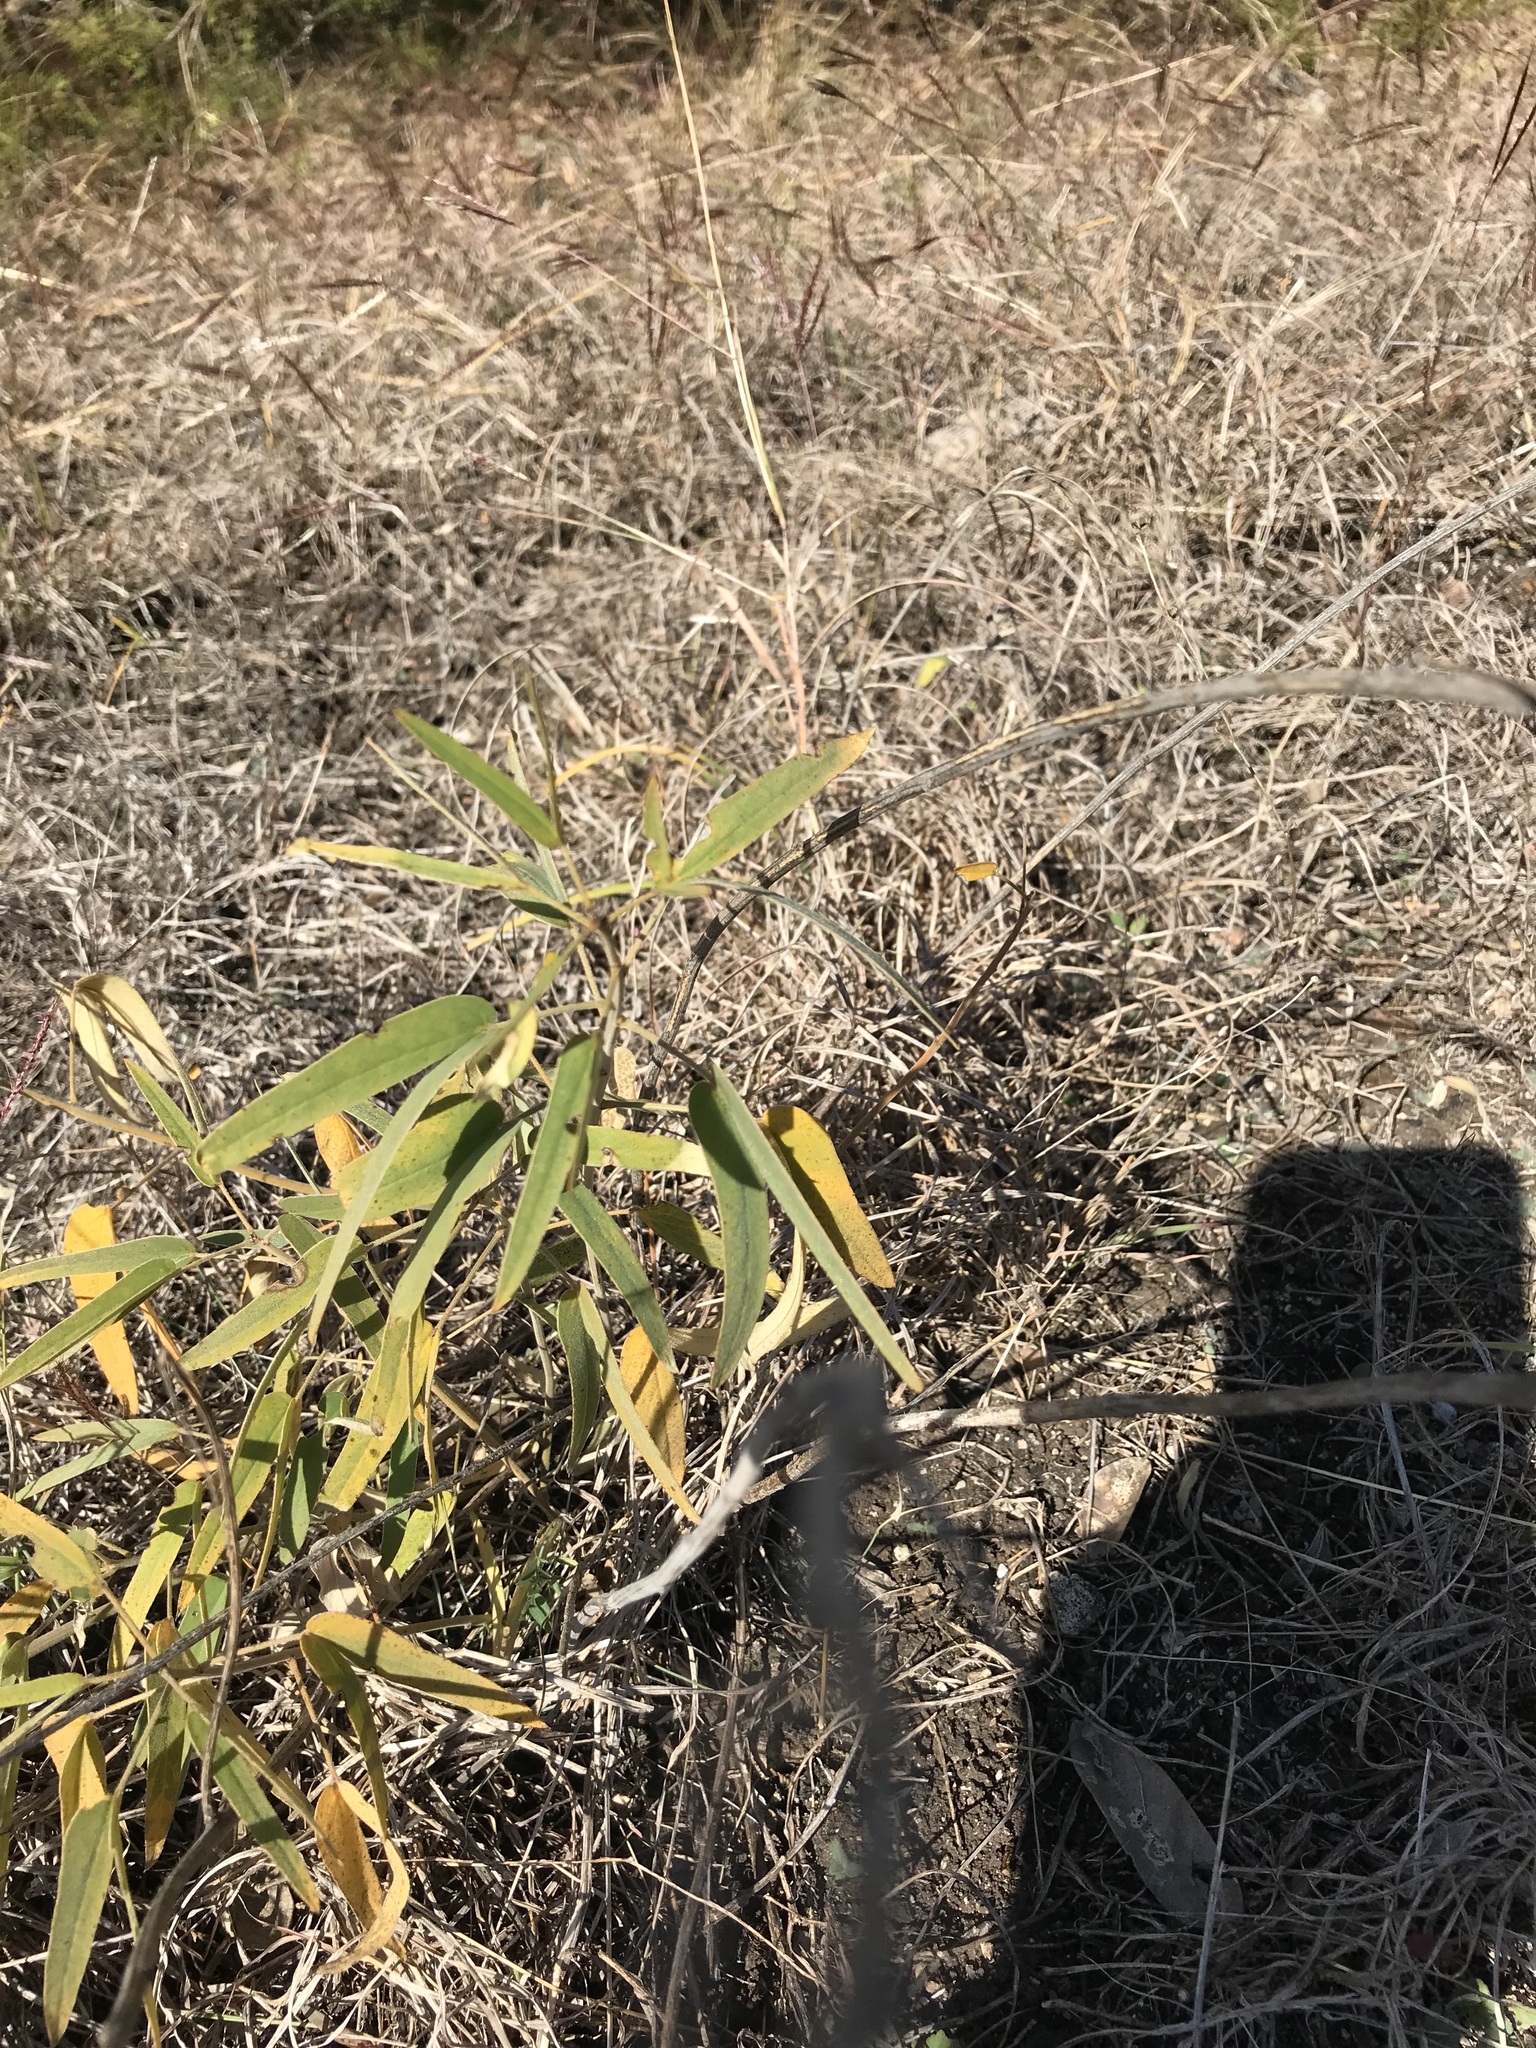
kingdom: Plantae
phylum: Tracheophyta
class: Magnoliopsida
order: Fabales
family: Fabaceae
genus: Senna
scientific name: Senna roemeriana
